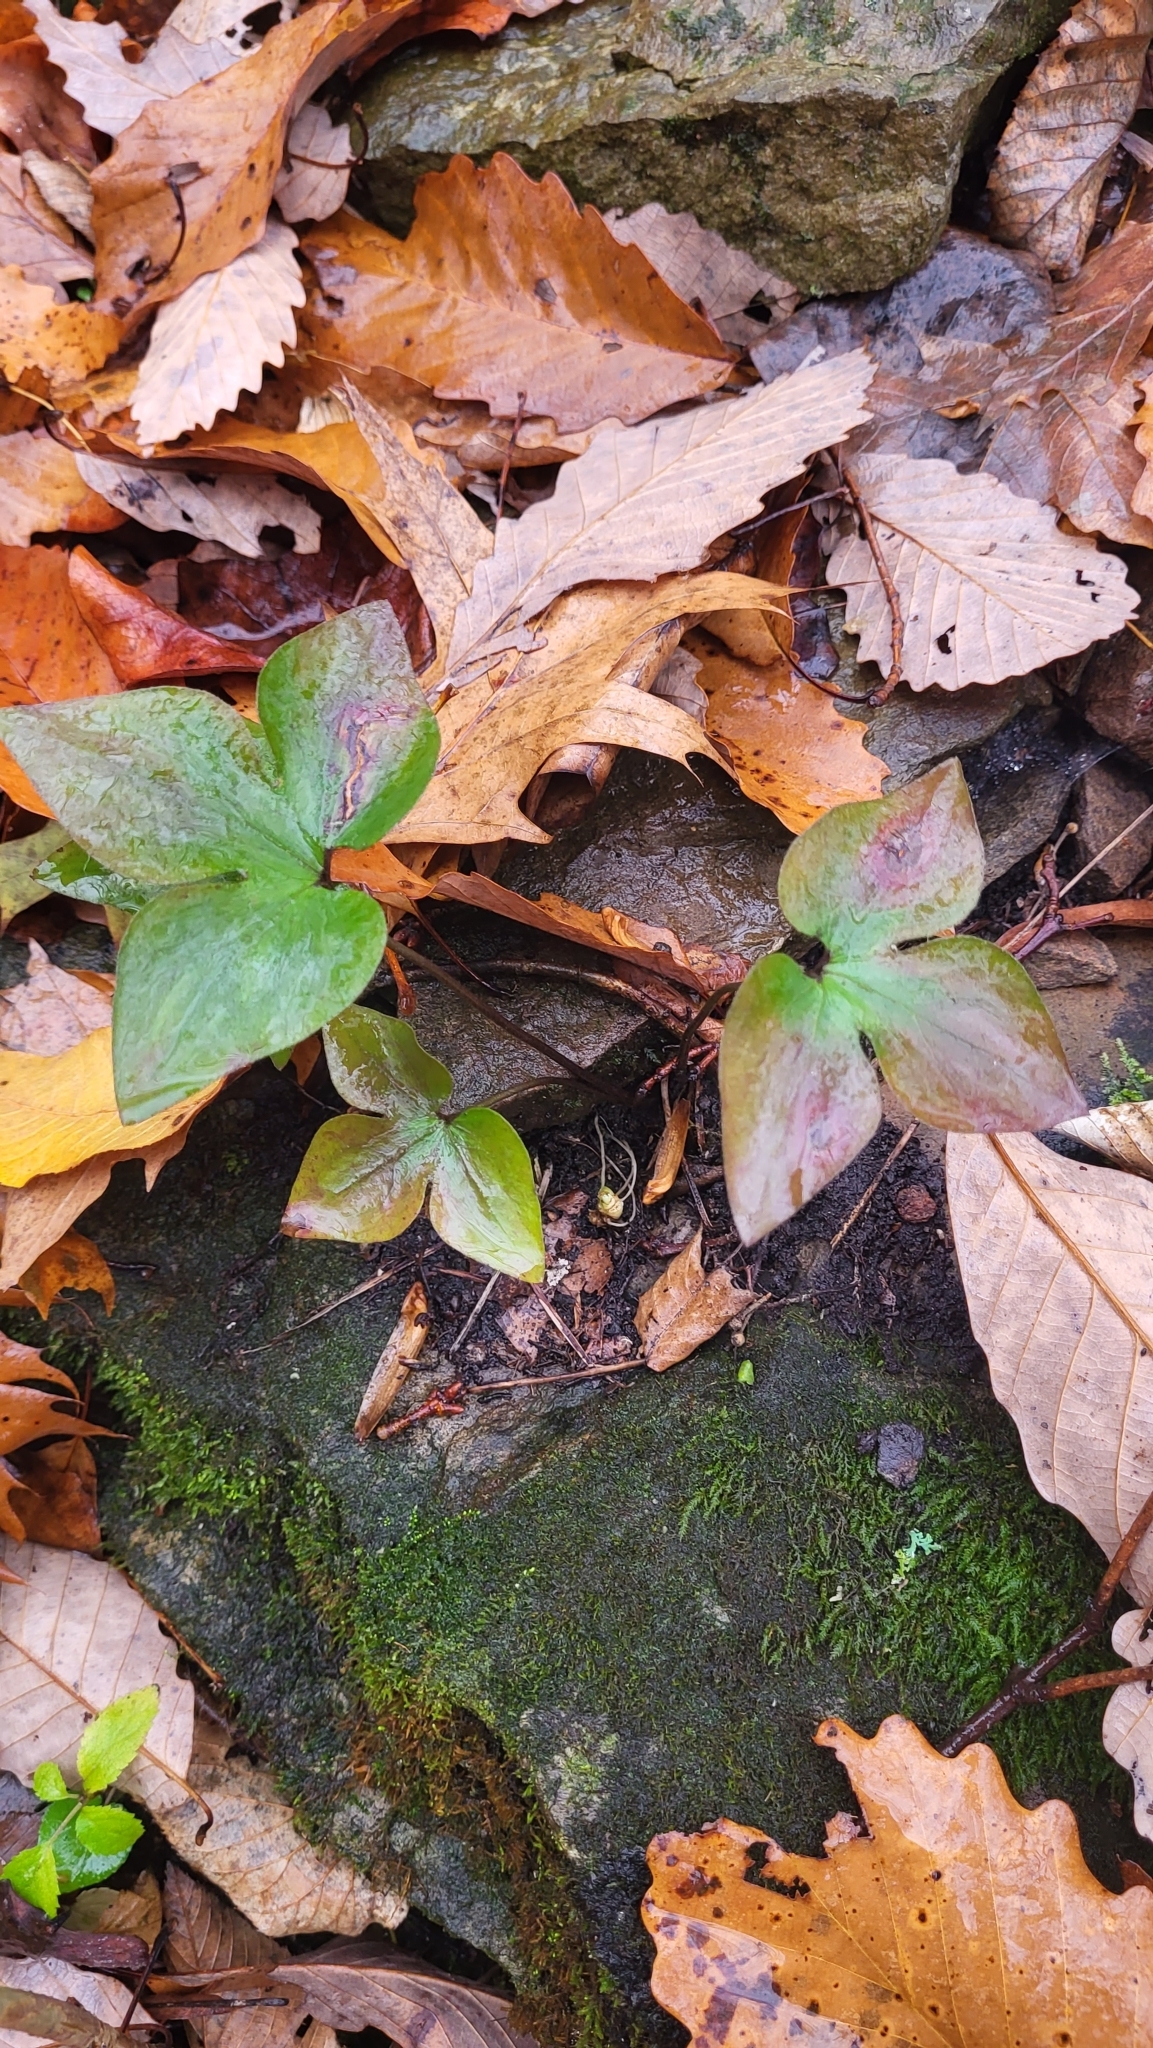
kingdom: Plantae
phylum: Tracheophyta
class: Magnoliopsida
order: Ranunculales
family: Ranunculaceae
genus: Hepatica
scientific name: Hepatica acutiloba
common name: Sharp-lobed hepatica
